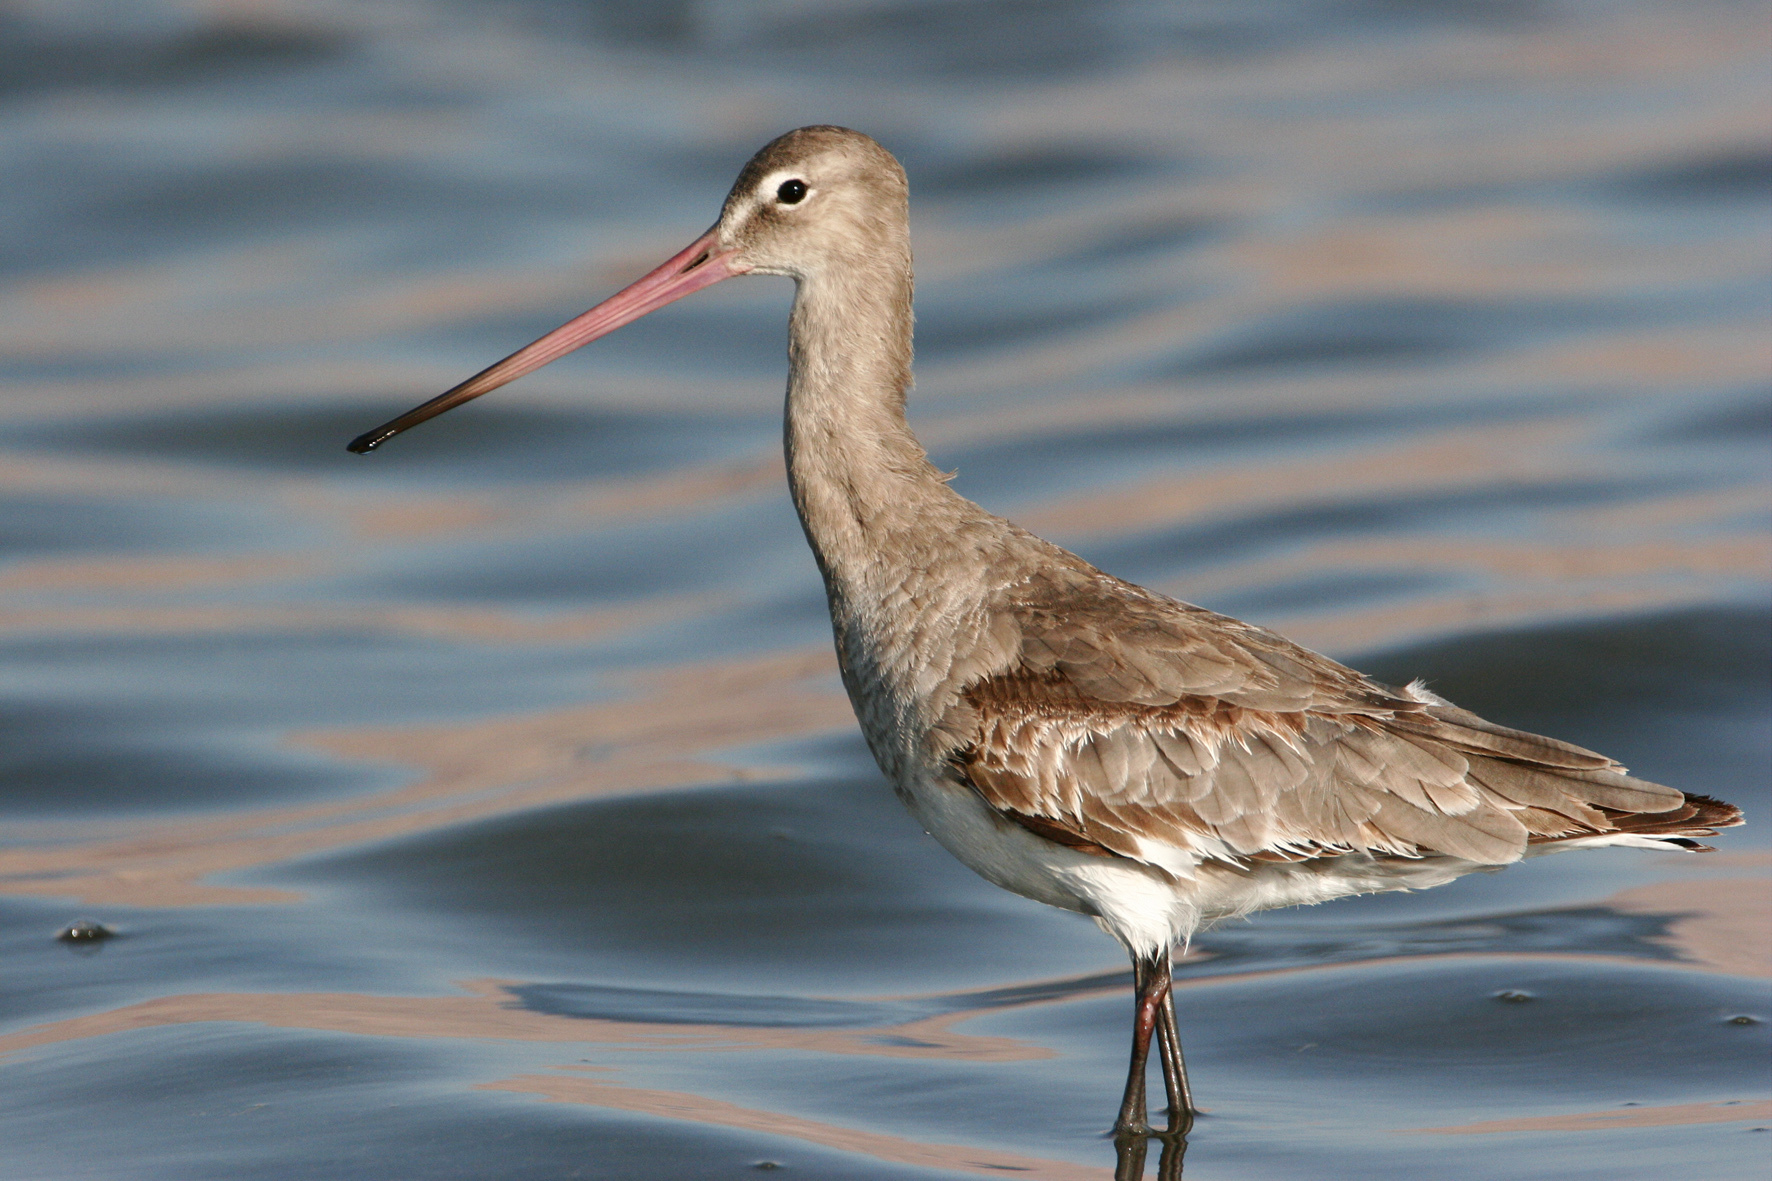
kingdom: Animalia
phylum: Chordata
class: Aves
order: Charadriiformes
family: Scolopacidae
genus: Limosa
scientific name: Limosa limosa
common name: Black-tailed godwit
